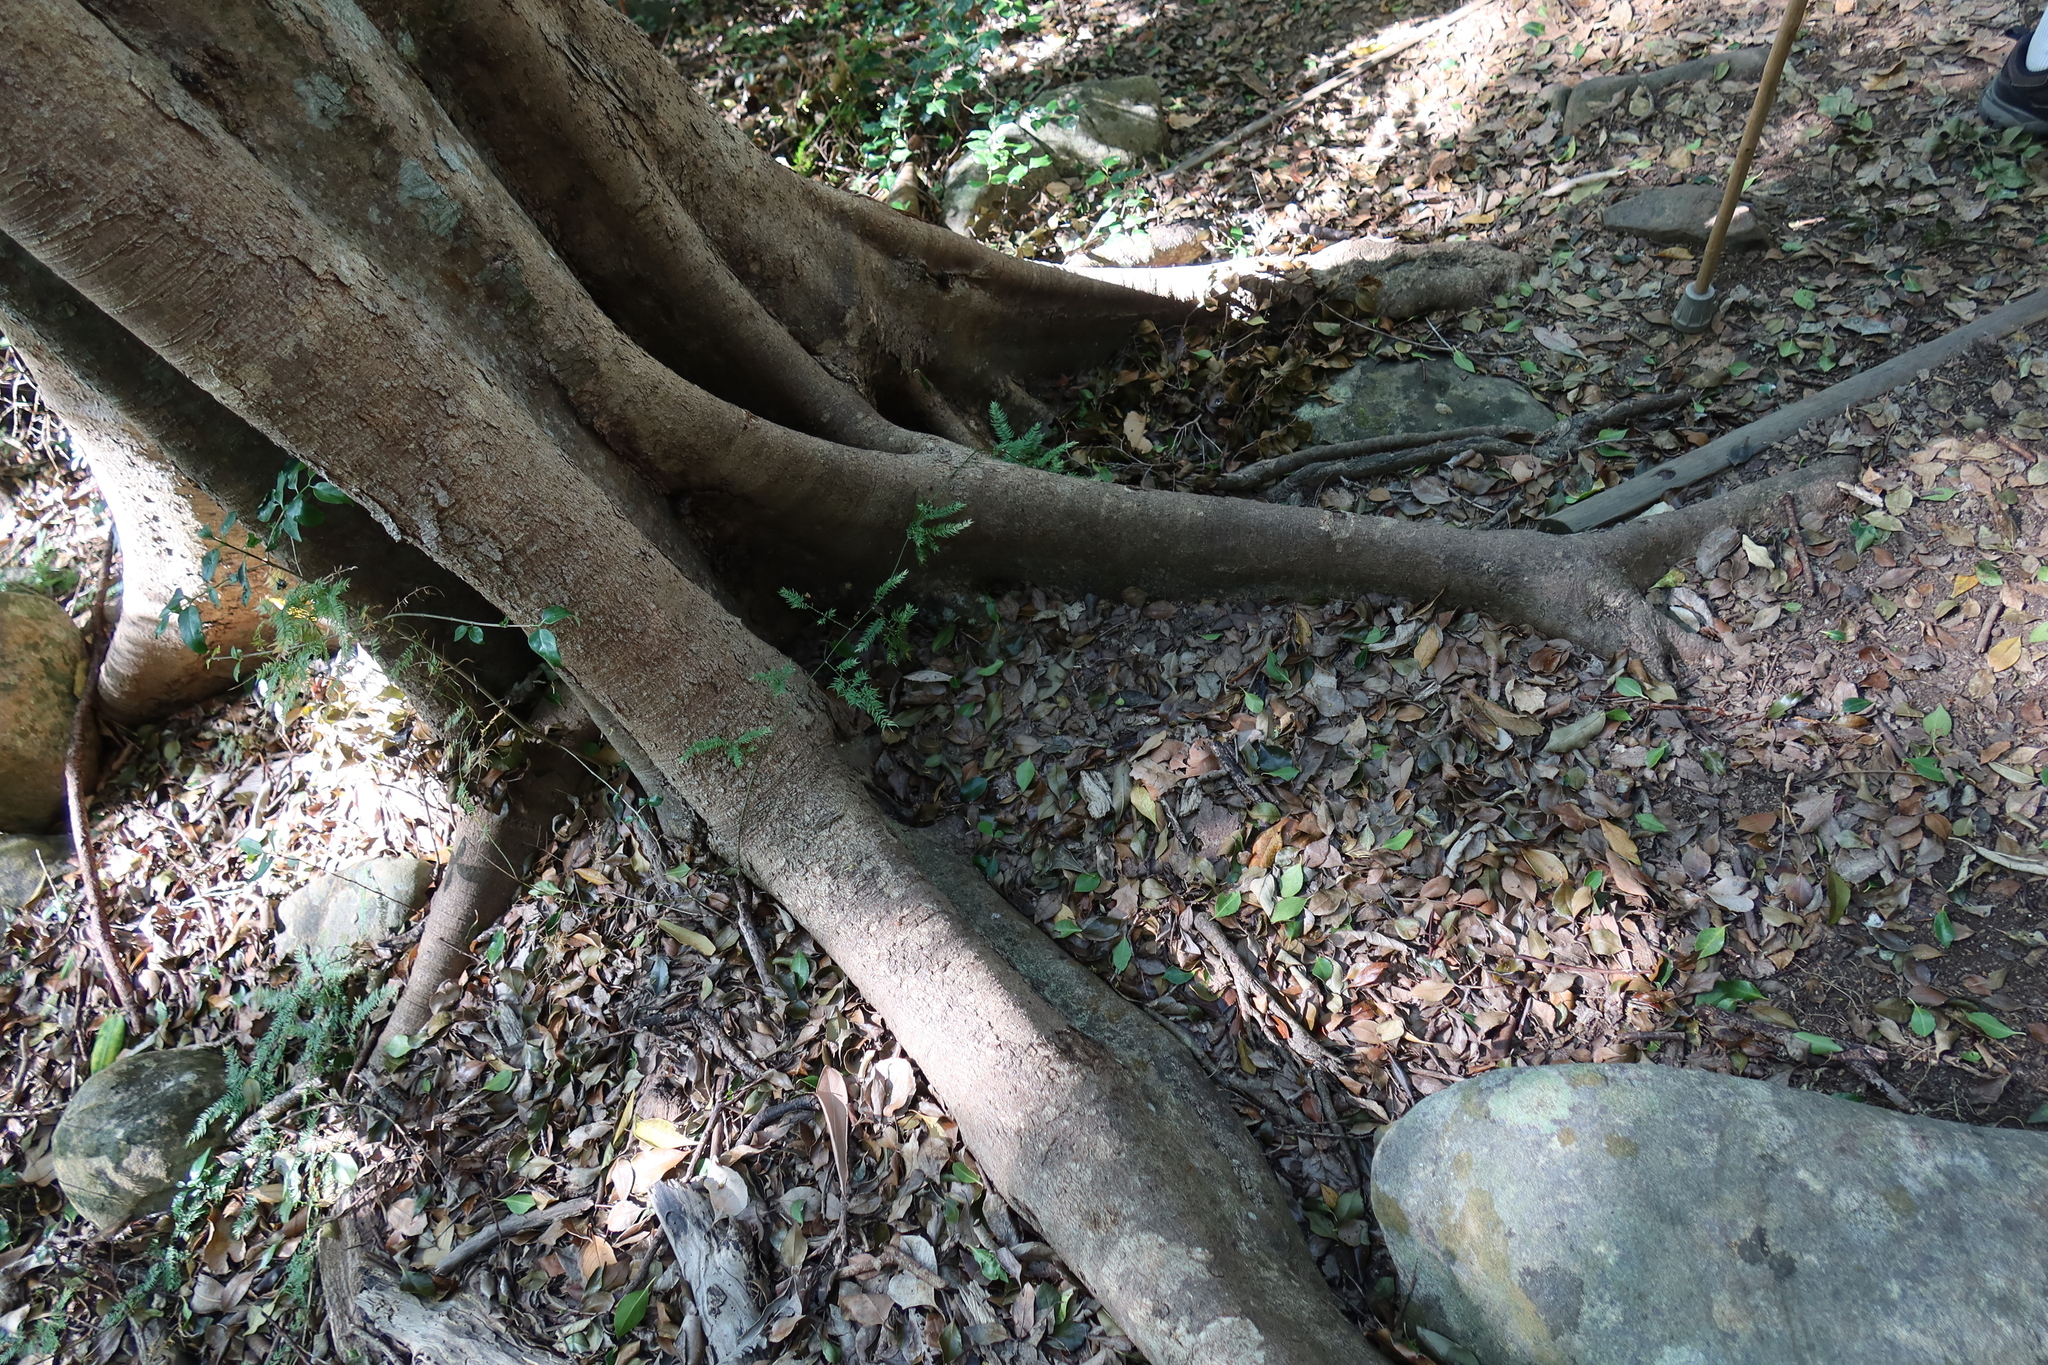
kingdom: Plantae
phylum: Tracheophyta
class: Magnoliopsida
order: Malpighiales
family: Salicaceae
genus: Scolopia
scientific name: Scolopia mundii
